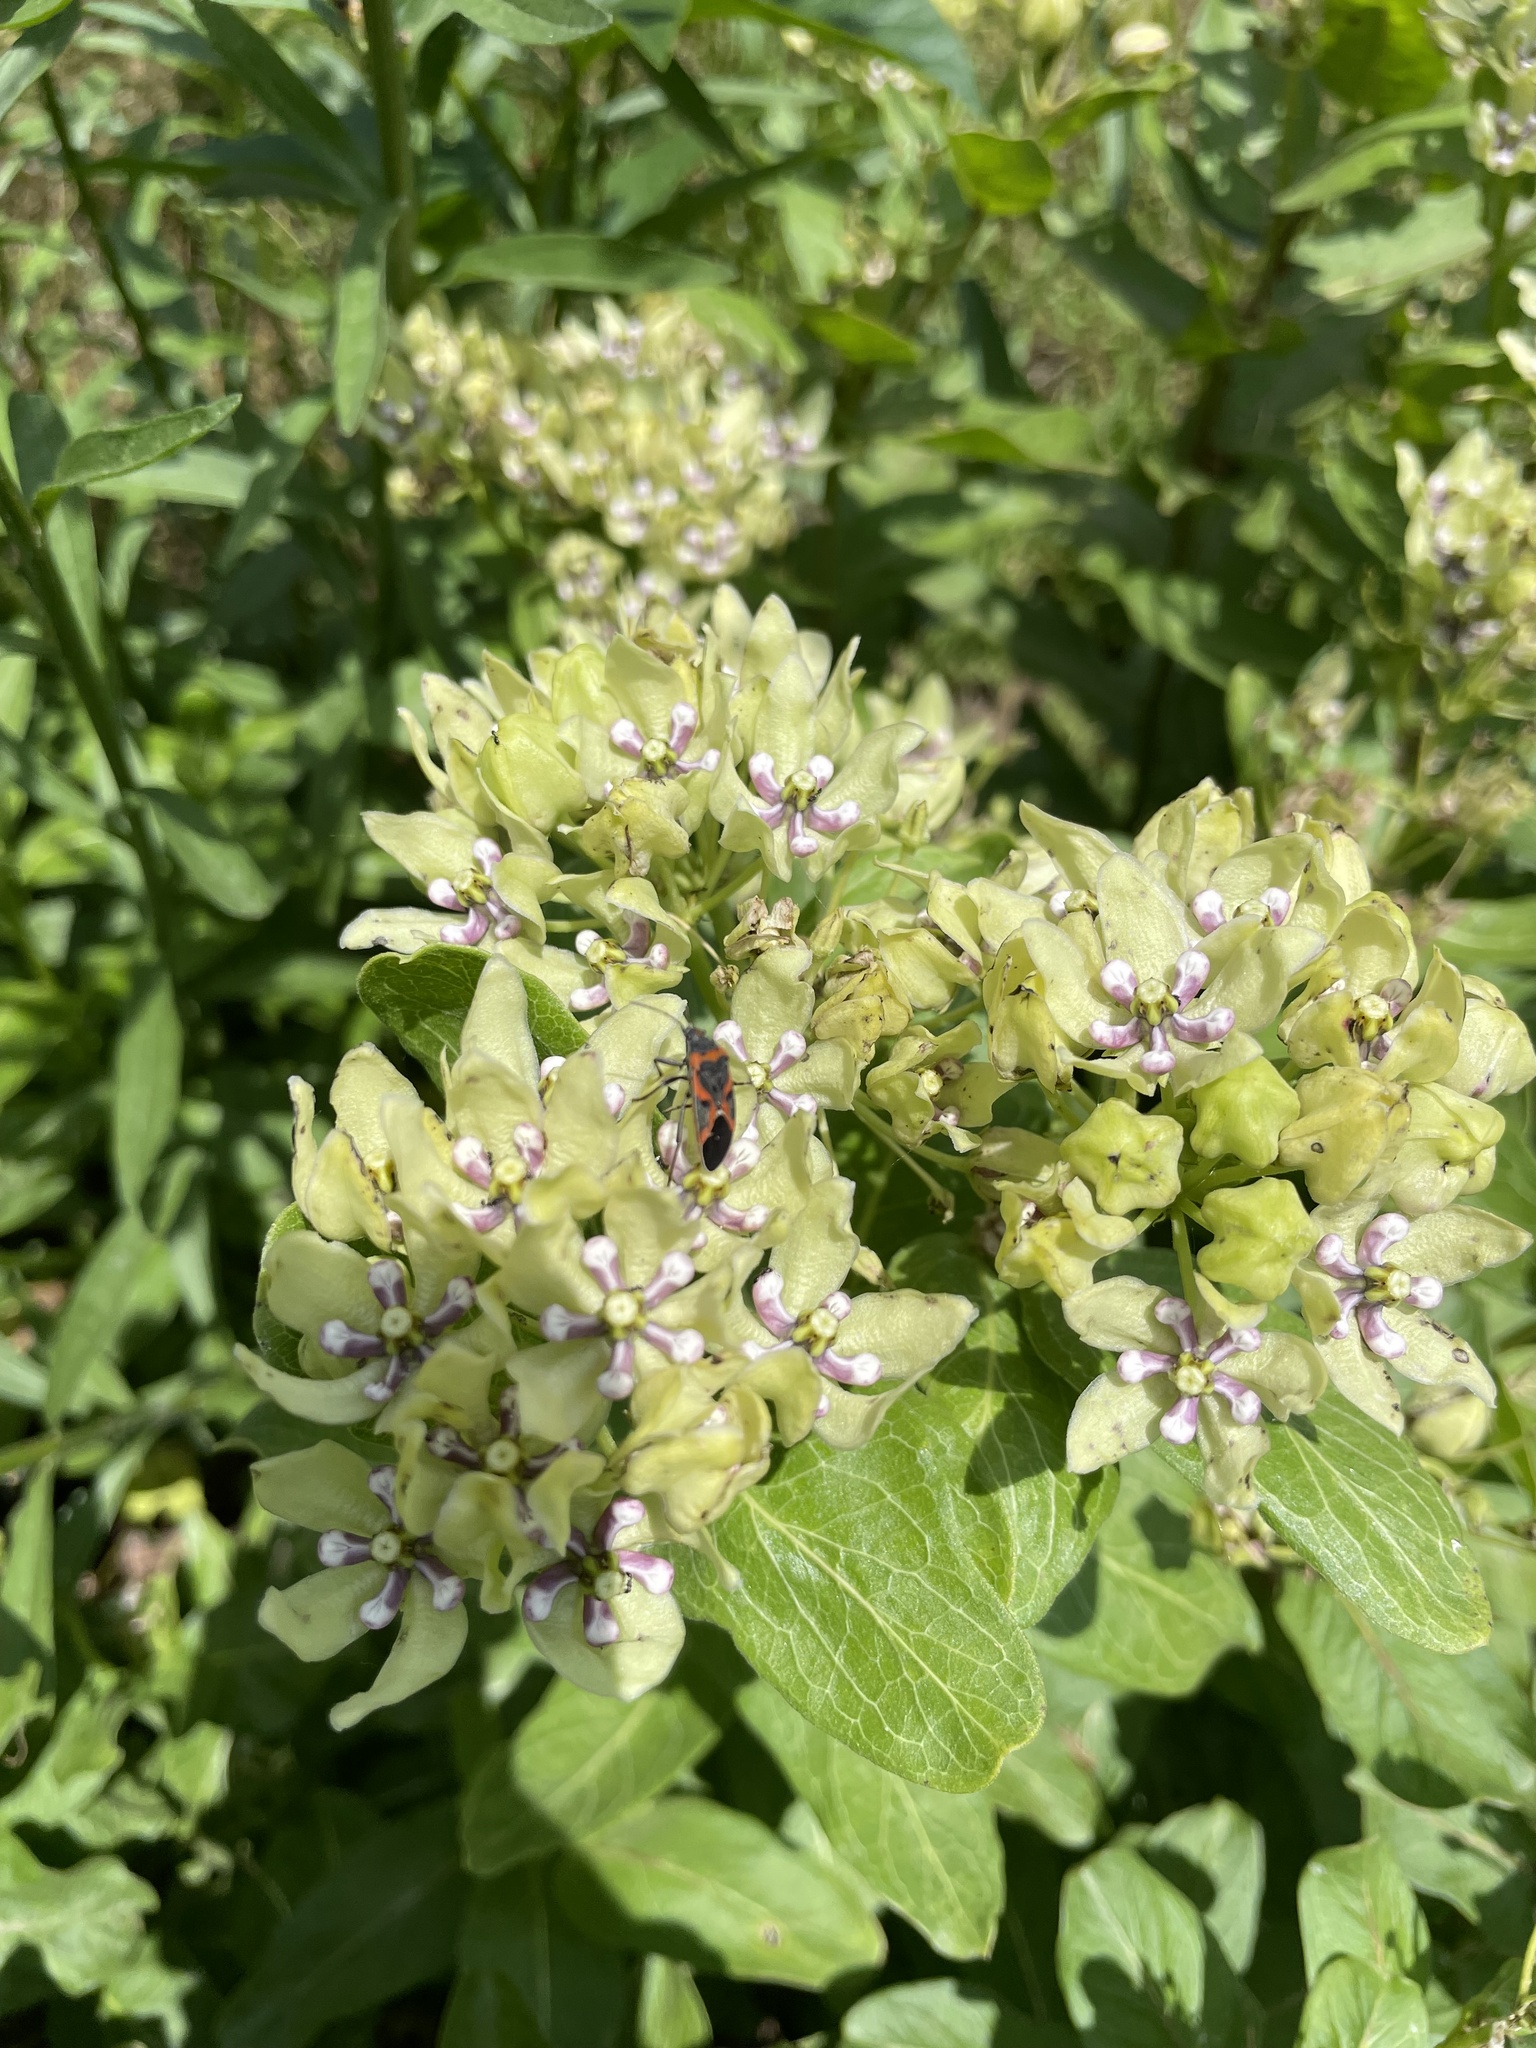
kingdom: Animalia
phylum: Arthropoda
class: Insecta
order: Hemiptera
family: Lygaeidae
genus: Lygaeus
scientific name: Lygaeus kalmii
